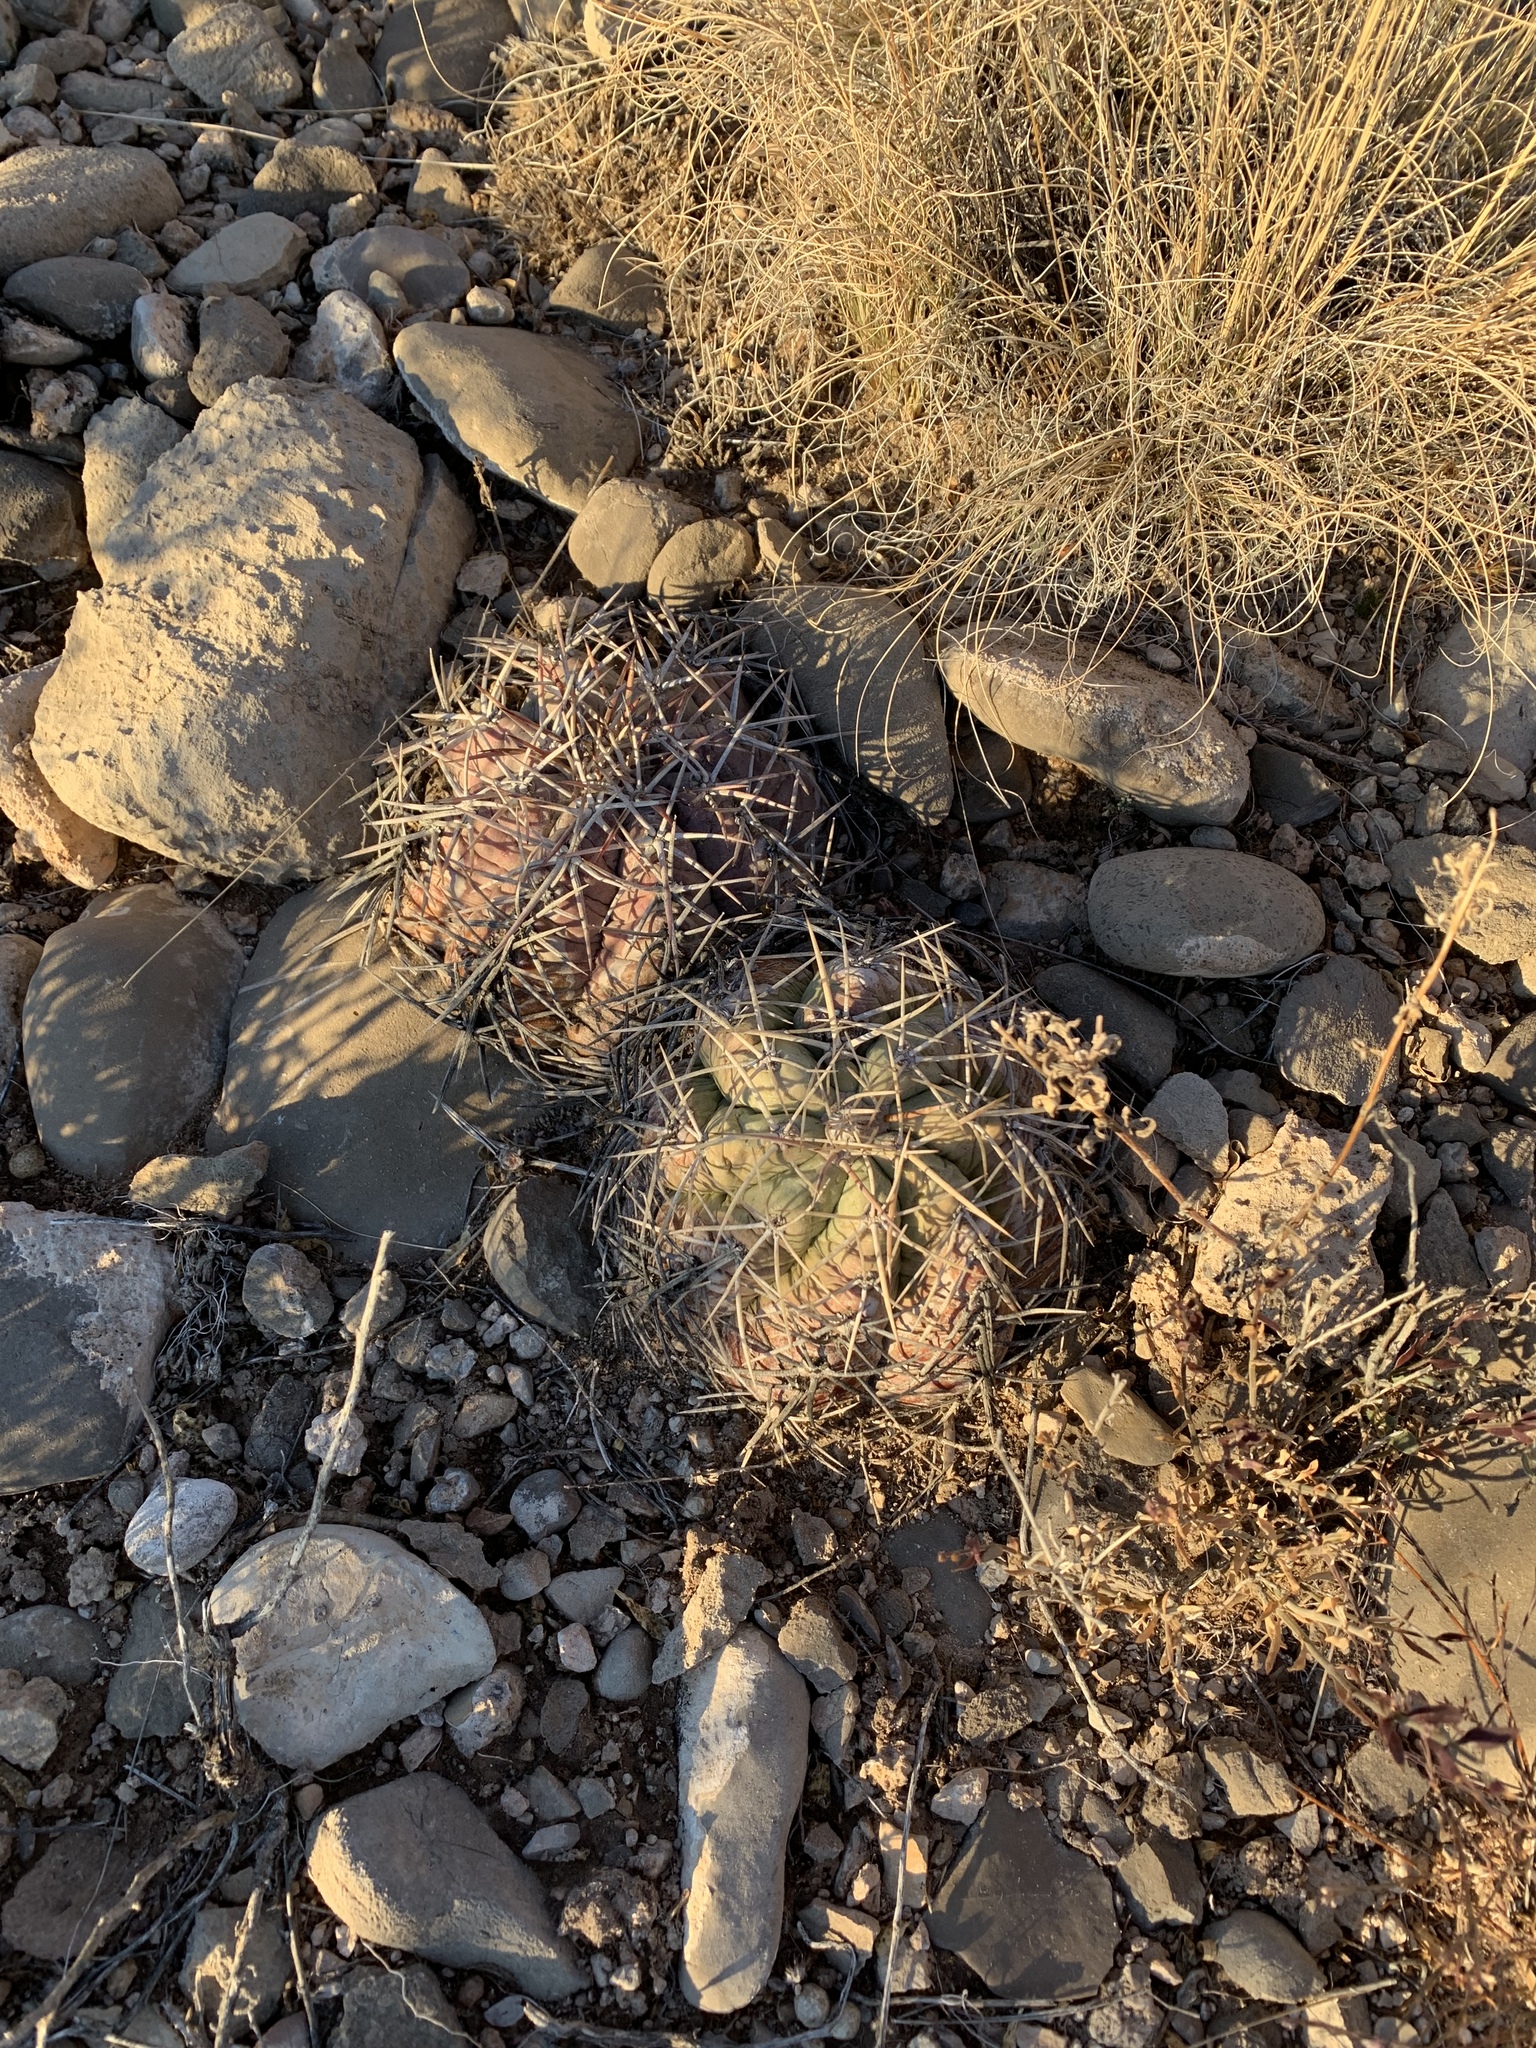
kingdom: Plantae
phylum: Tracheophyta
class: Magnoliopsida
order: Caryophyllales
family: Cactaceae
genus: Echinocactus
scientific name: Echinocactus horizonthalonius
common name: Devilshead
